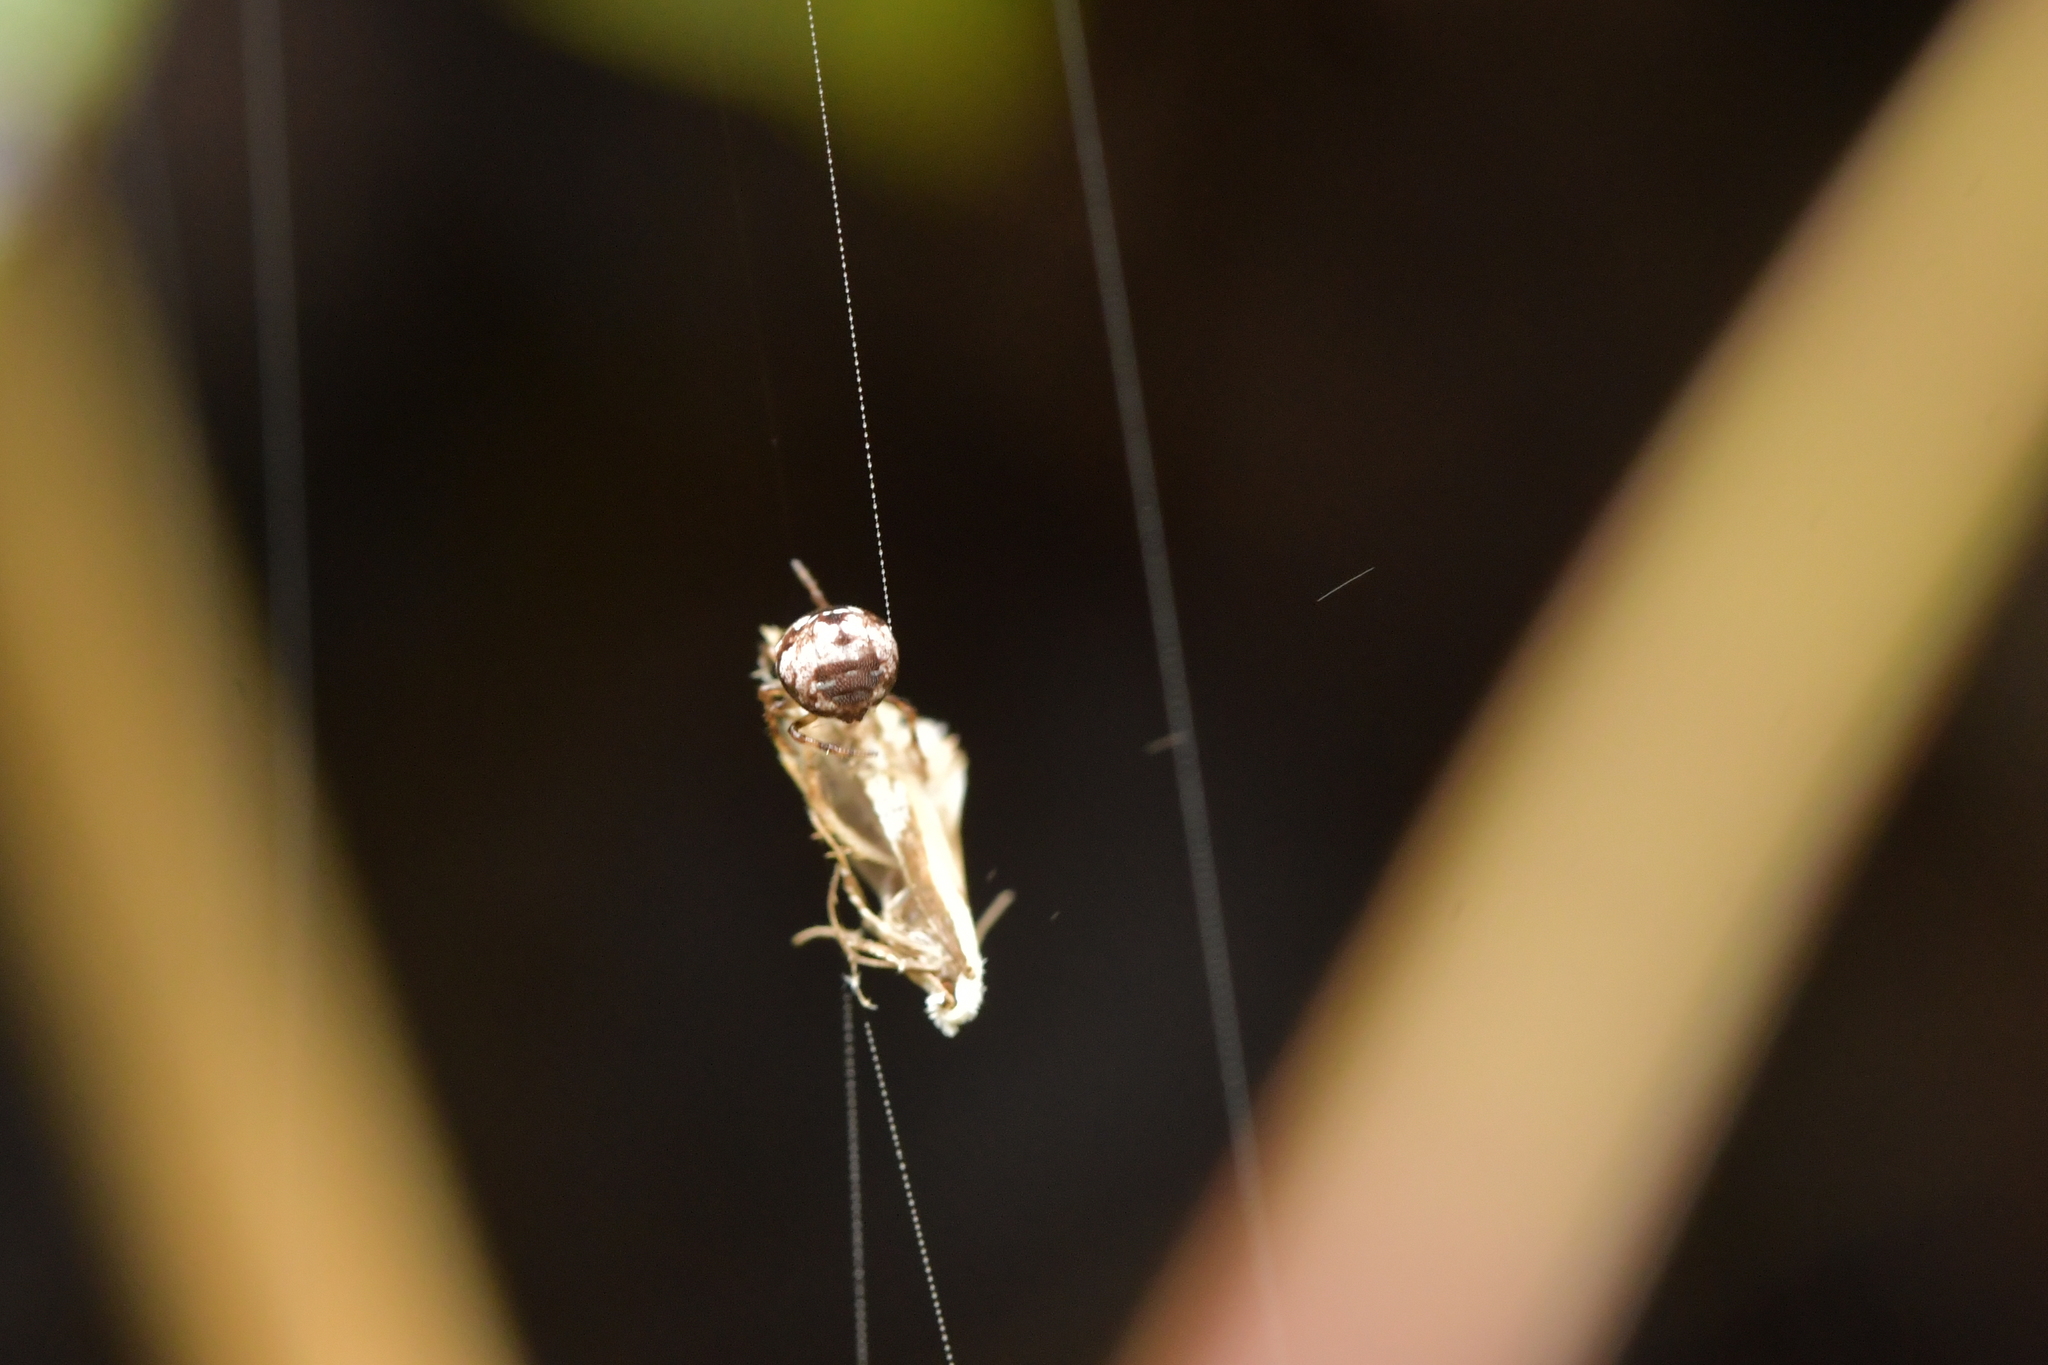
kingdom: Animalia
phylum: Arthropoda
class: Insecta
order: Lepidoptera
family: Mnesarchaeidae
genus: Mnesarchella
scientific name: Mnesarchella acuta
